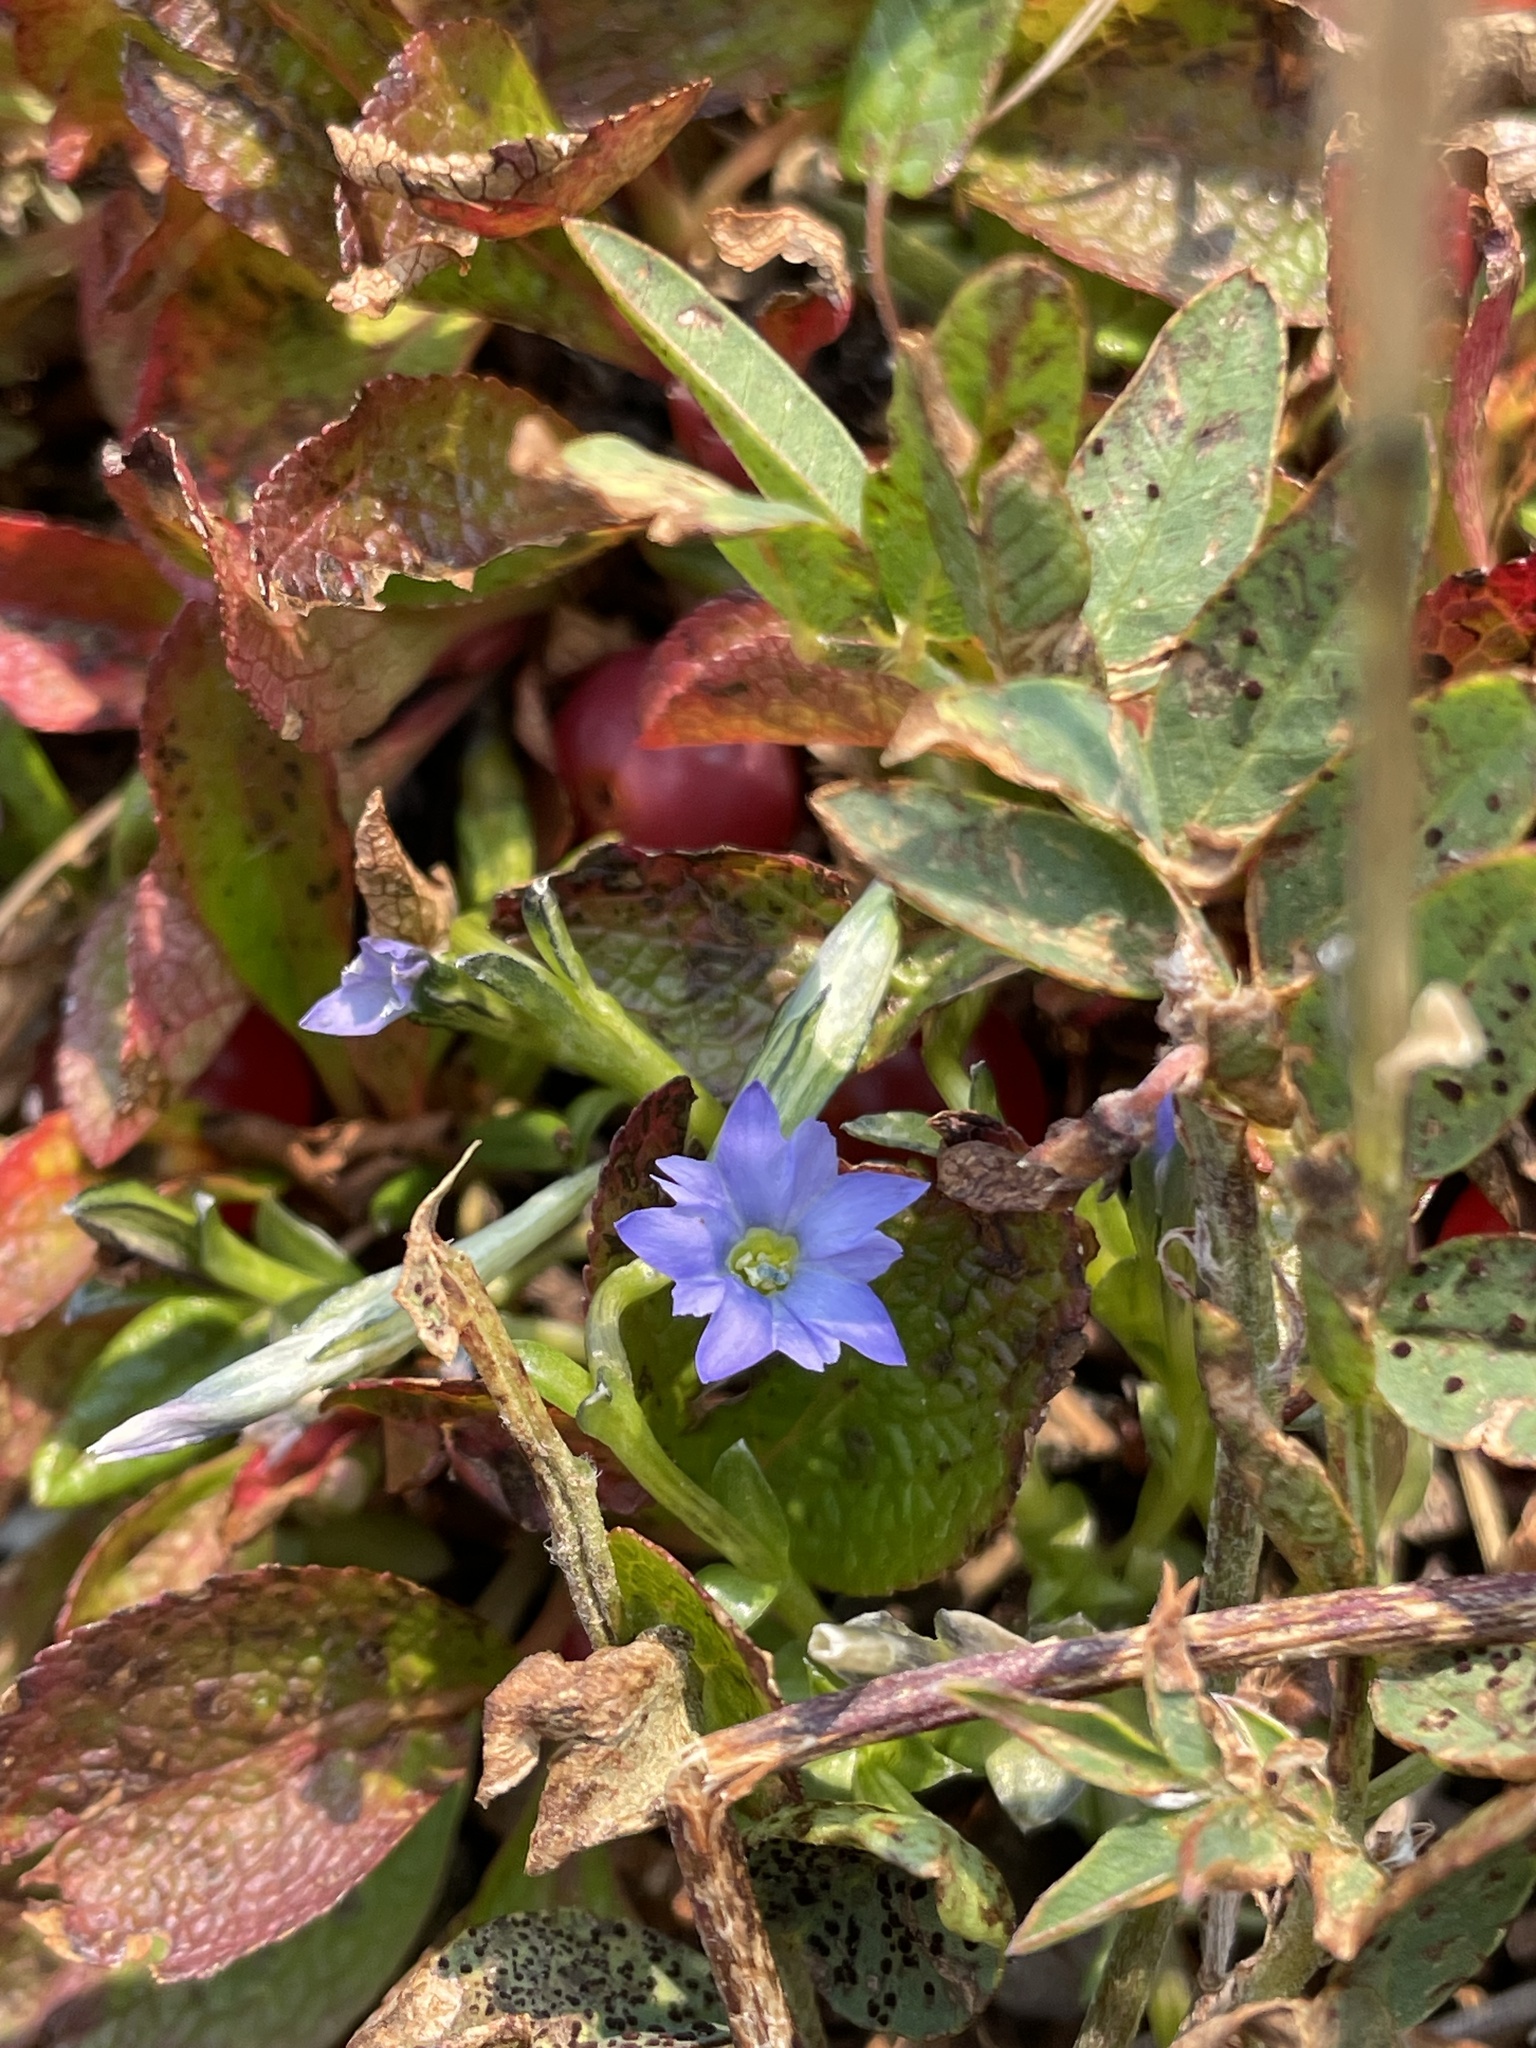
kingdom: Plantae
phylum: Tracheophyta
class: Magnoliopsida
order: Gentianales
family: Gentianaceae
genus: Gentiana
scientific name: Gentiana prostrata
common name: Moss gentian
